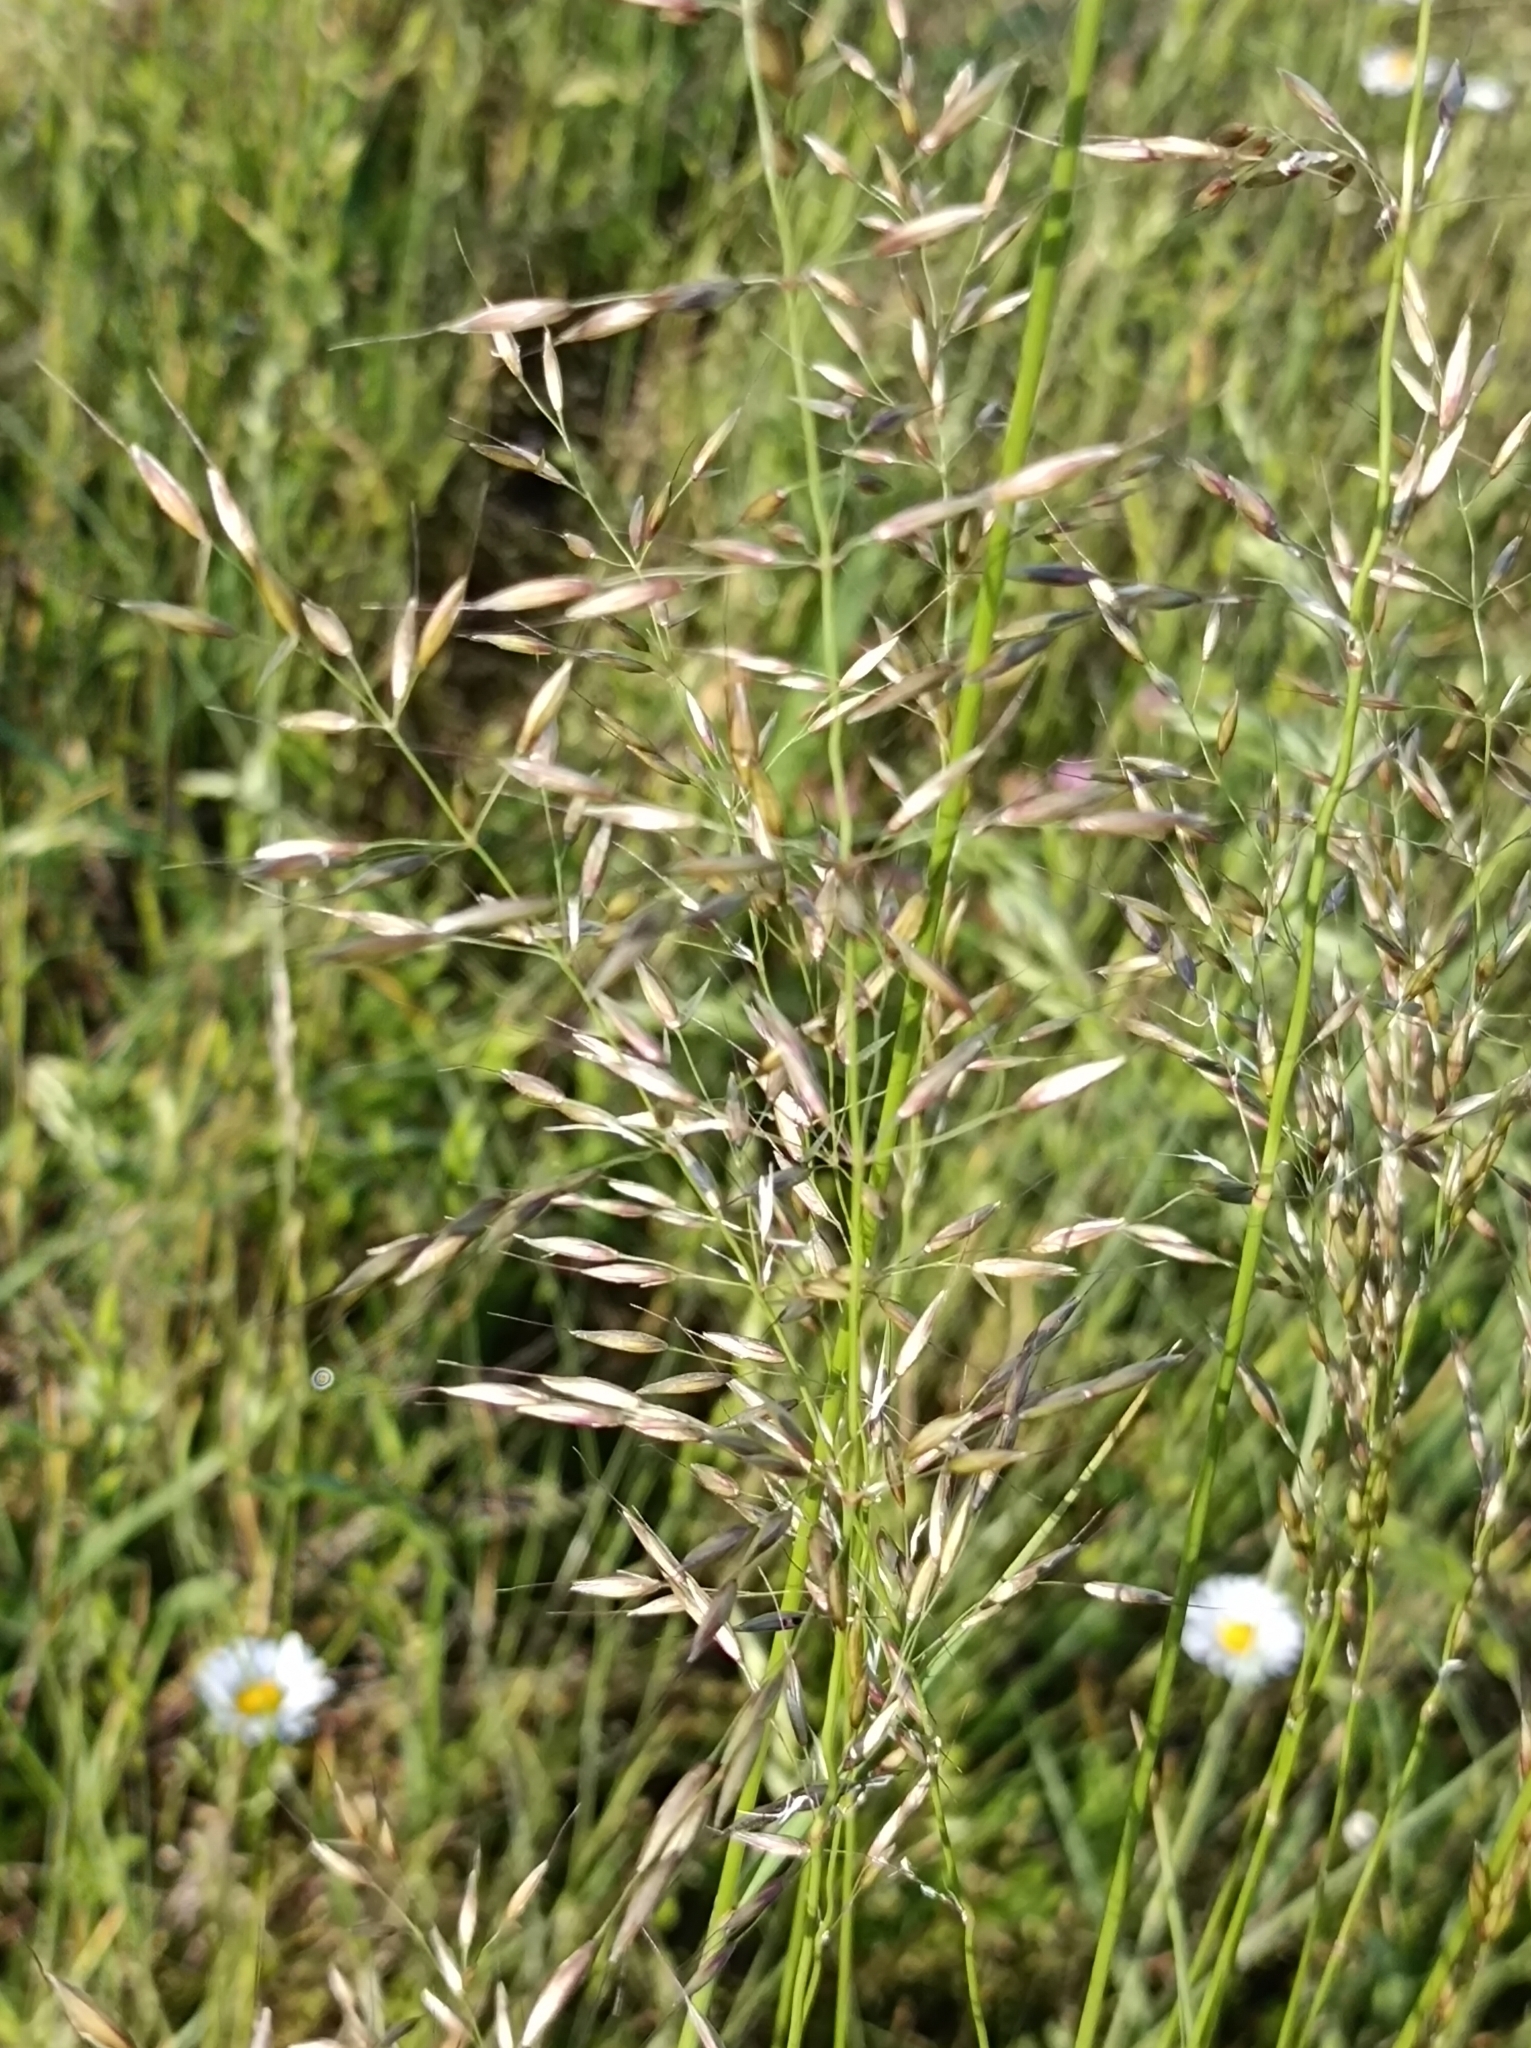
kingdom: Plantae
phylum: Tracheophyta
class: Liliopsida
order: Poales
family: Poaceae
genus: Arrhenatherum
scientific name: Arrhenatherum elatius
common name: Tall oatgrass
